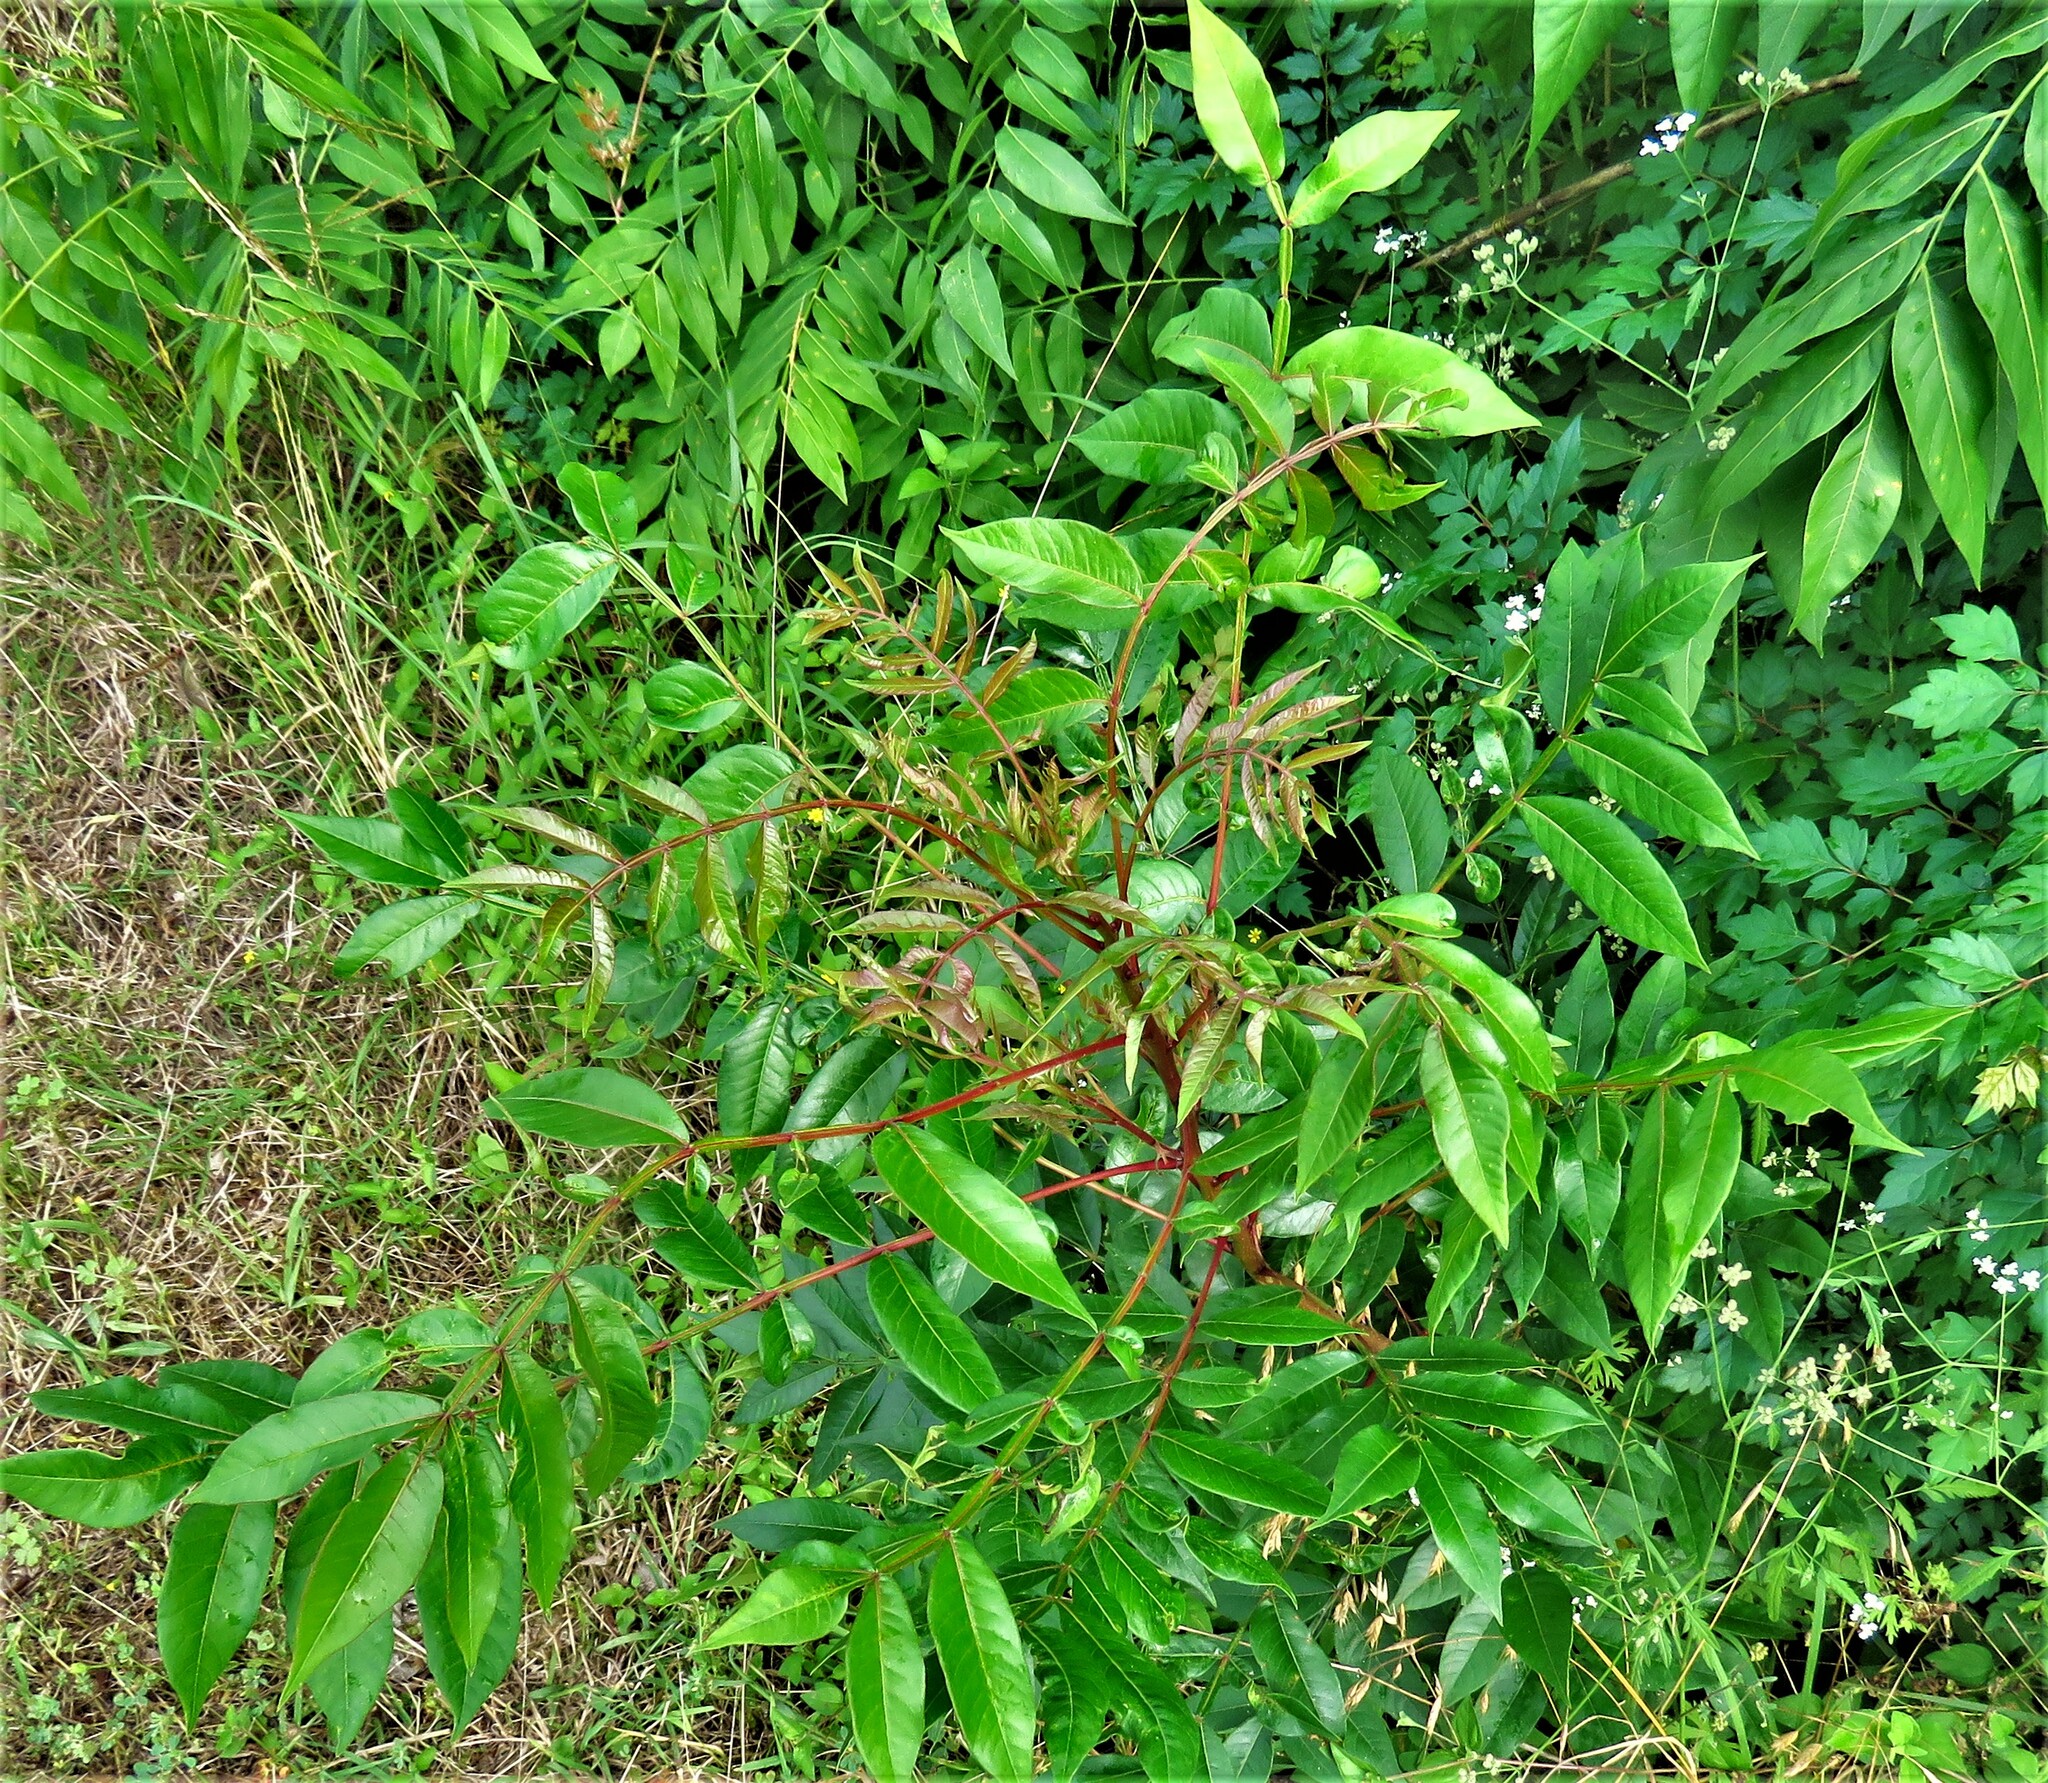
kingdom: Plantae
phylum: Tracheophyta
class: Magnoliopsida
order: Sapindales
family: Anacardiaceae
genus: Rhus
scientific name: Rhus copallina
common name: Shining sumac
